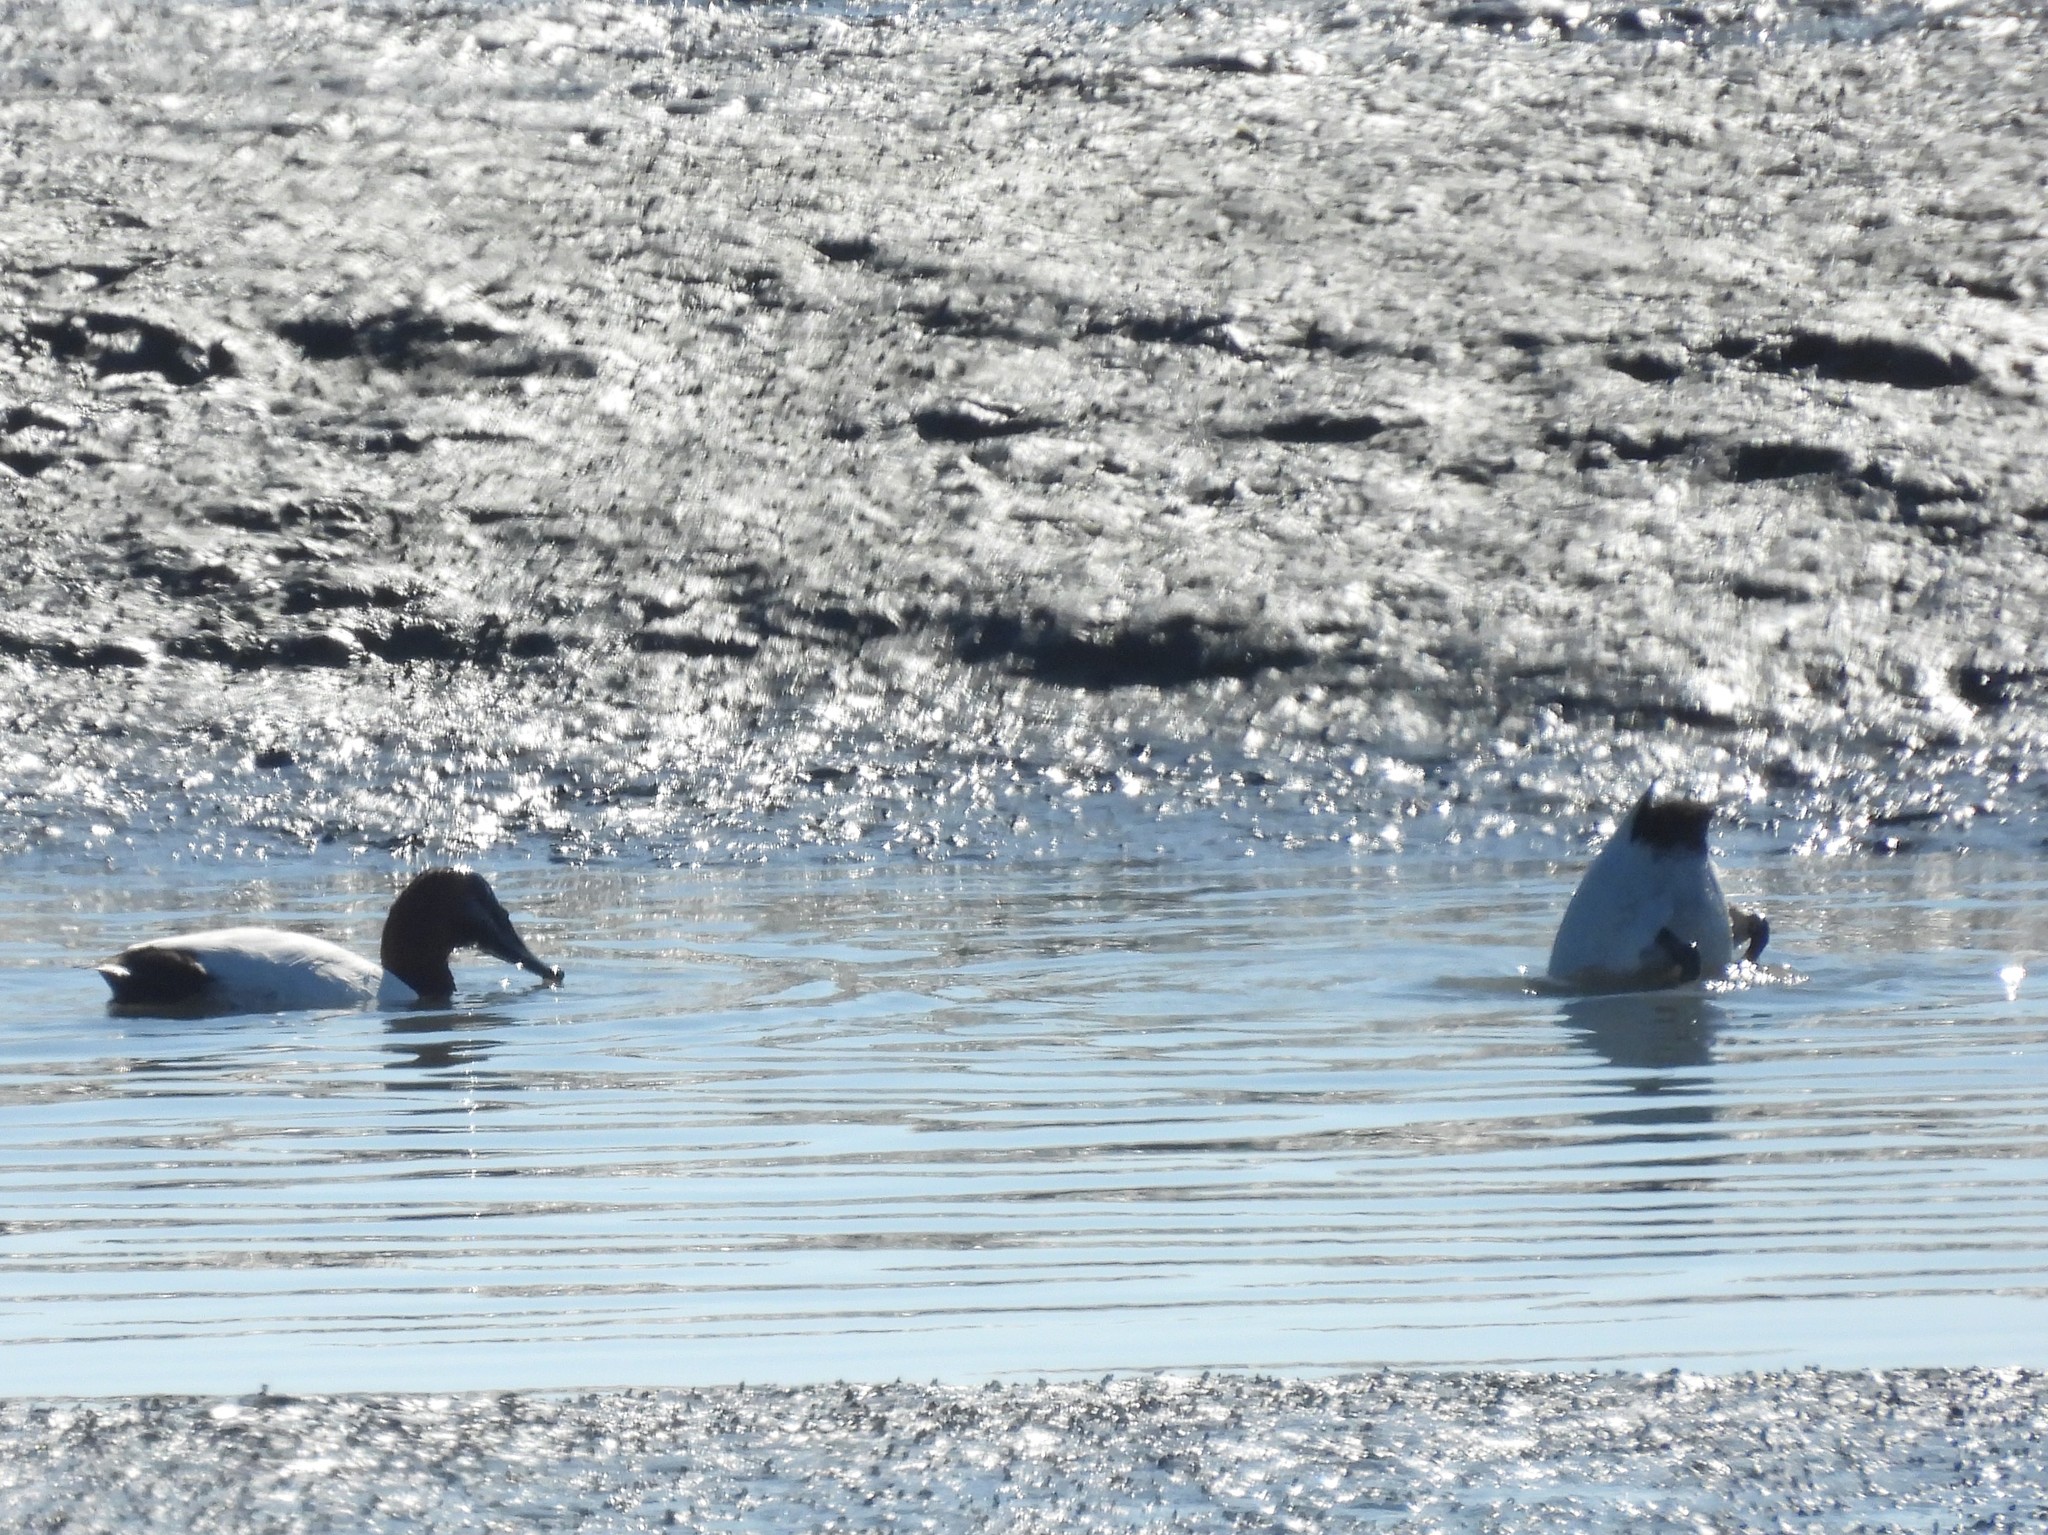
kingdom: Animalia
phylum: Chordata
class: Aves
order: Anseriformes
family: Anatidae
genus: Aythya
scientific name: Aythya valisineria
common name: Canvasback
